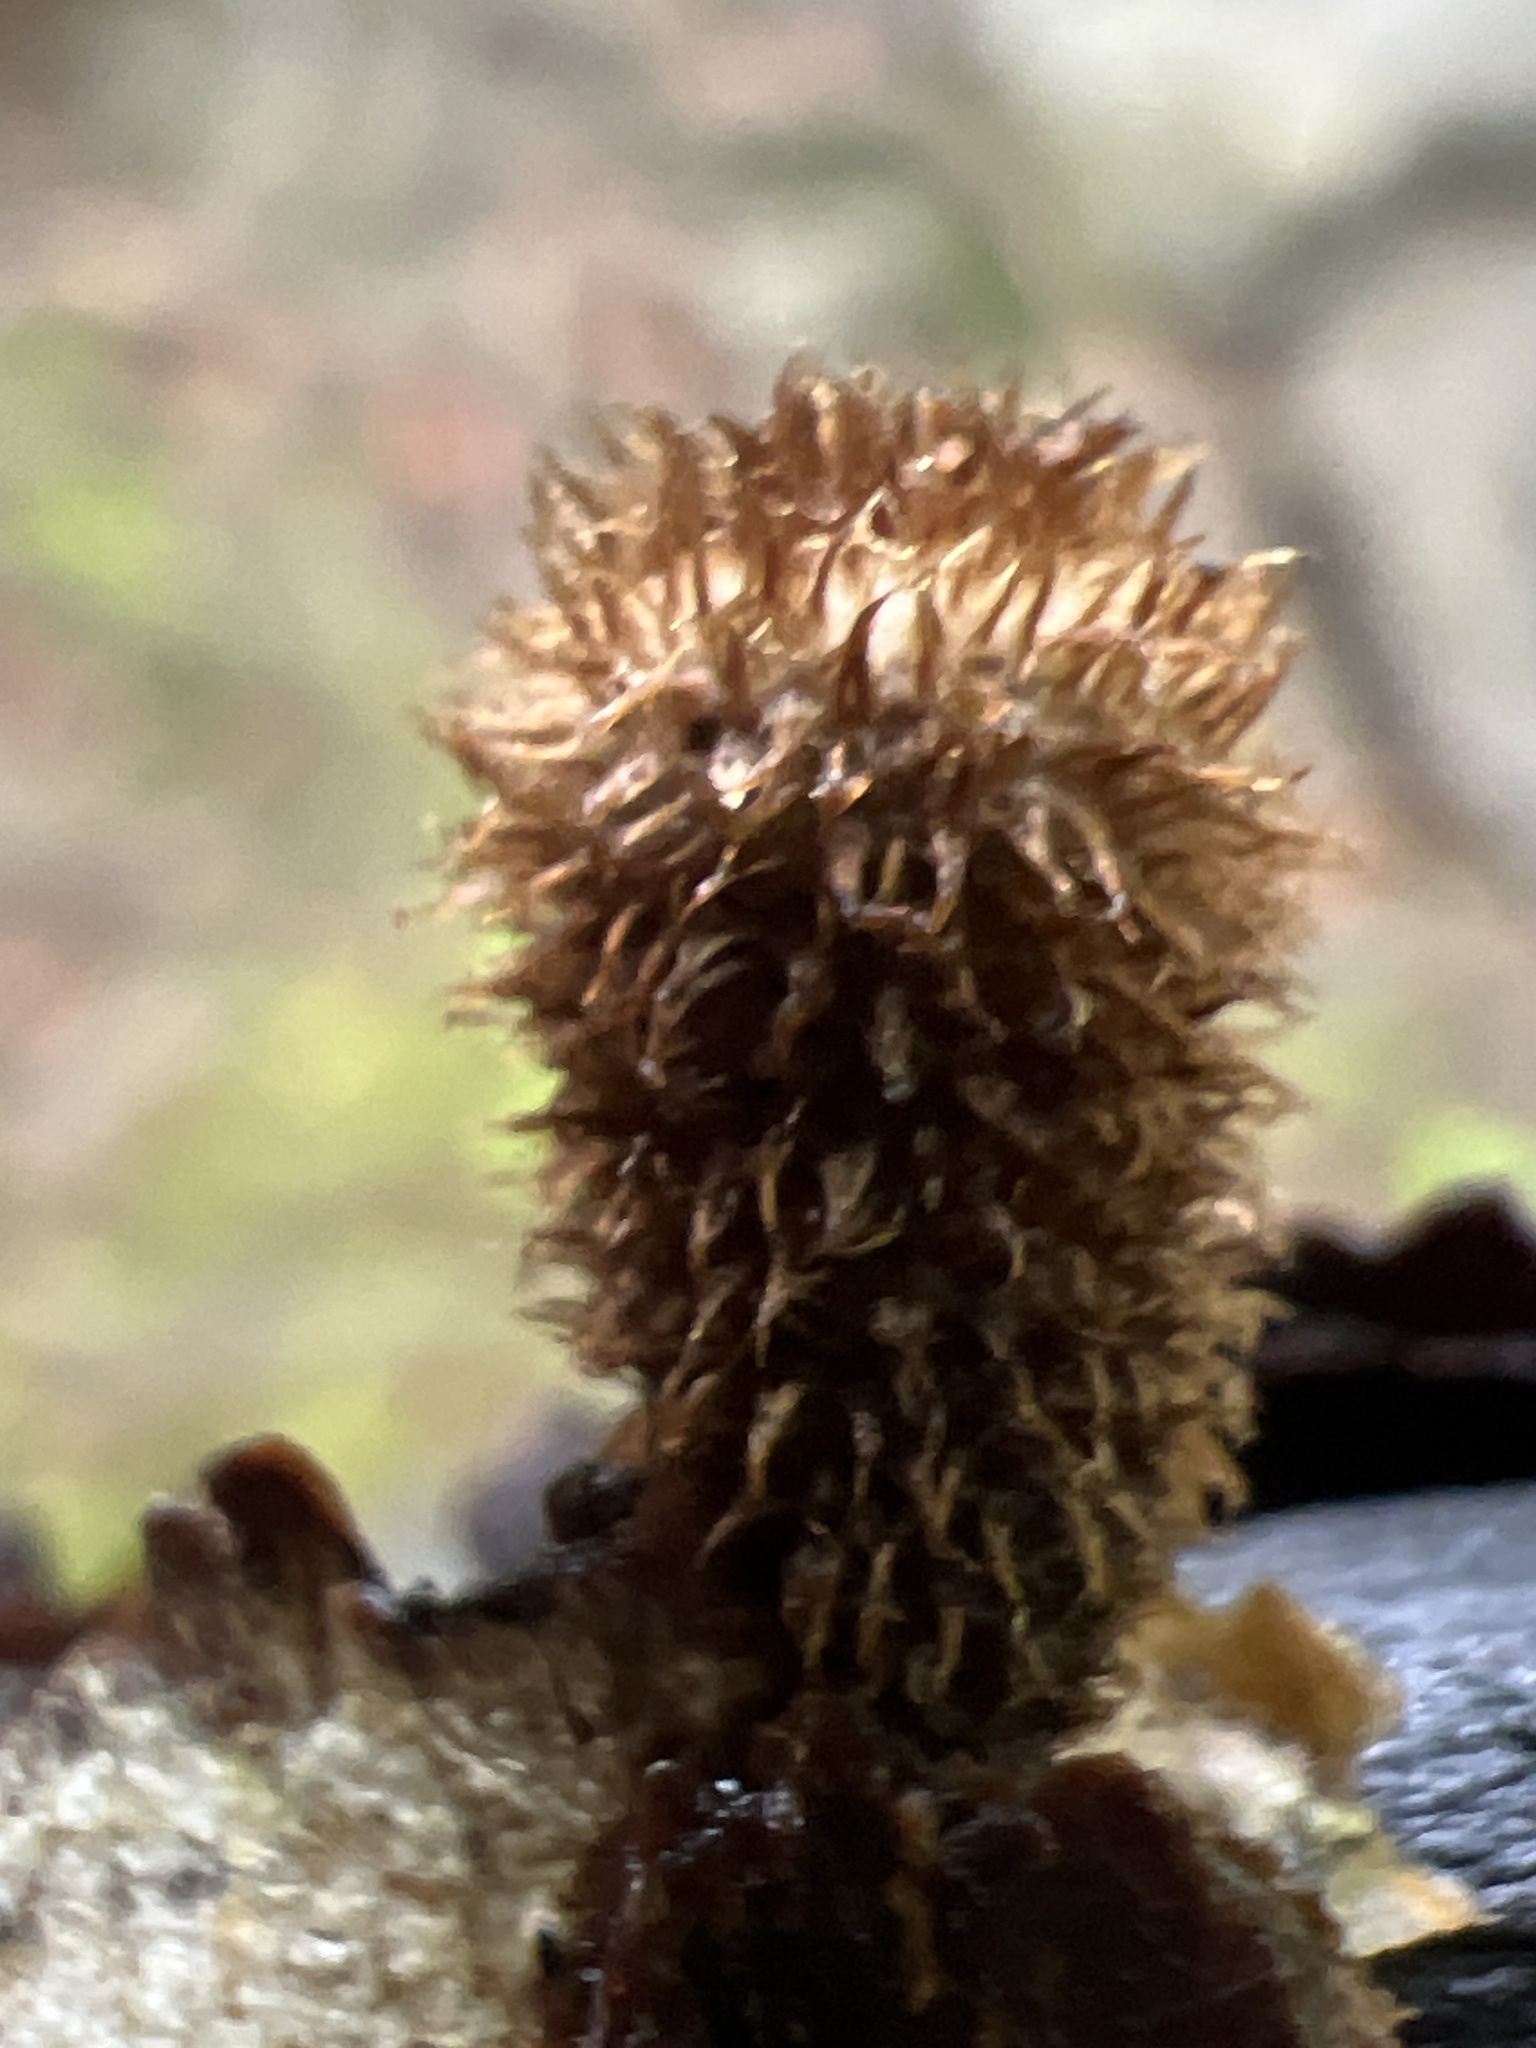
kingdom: Fungi
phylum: Basidiomycota
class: Agaricomycetes
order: Agaricales
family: Agaricaceae
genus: Cyathus
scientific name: Cyathus striatus
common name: Fluted bird's nest
